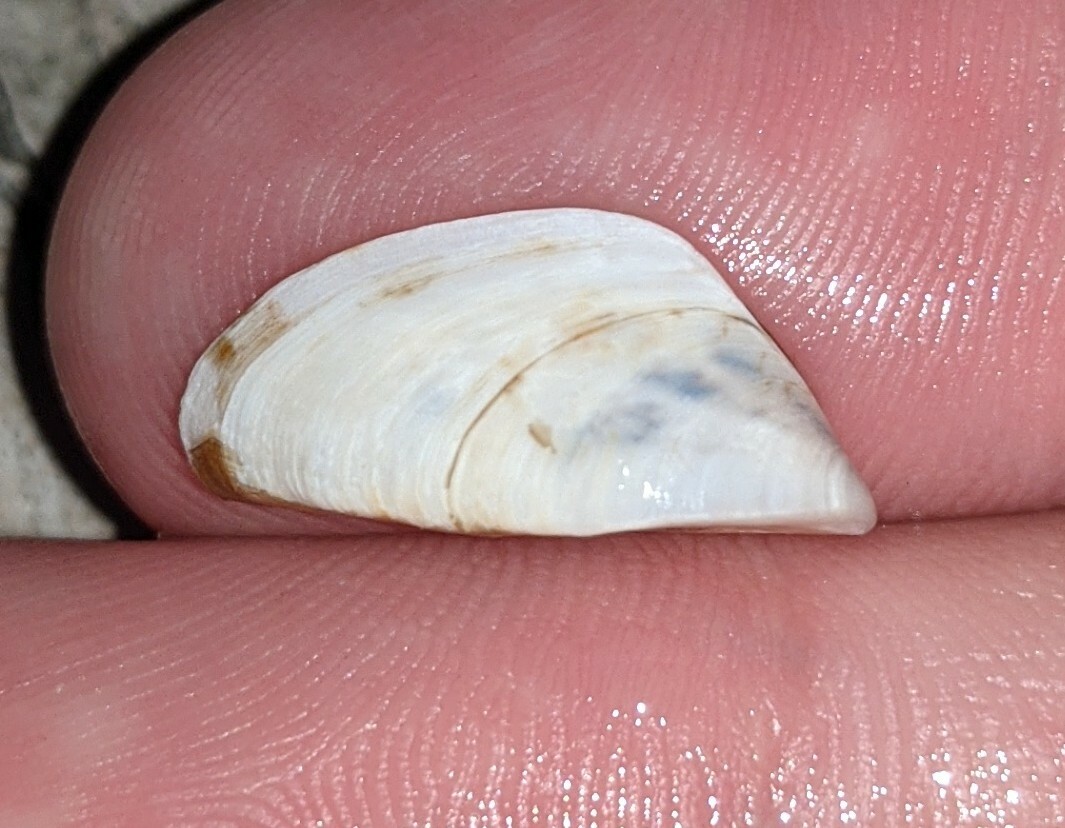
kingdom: Animalia
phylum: Mollusca
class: Bivalvia
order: Myida
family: Dreissenidae
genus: Dreissena
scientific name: Dreissena polymorpha
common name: Zebra mussel
